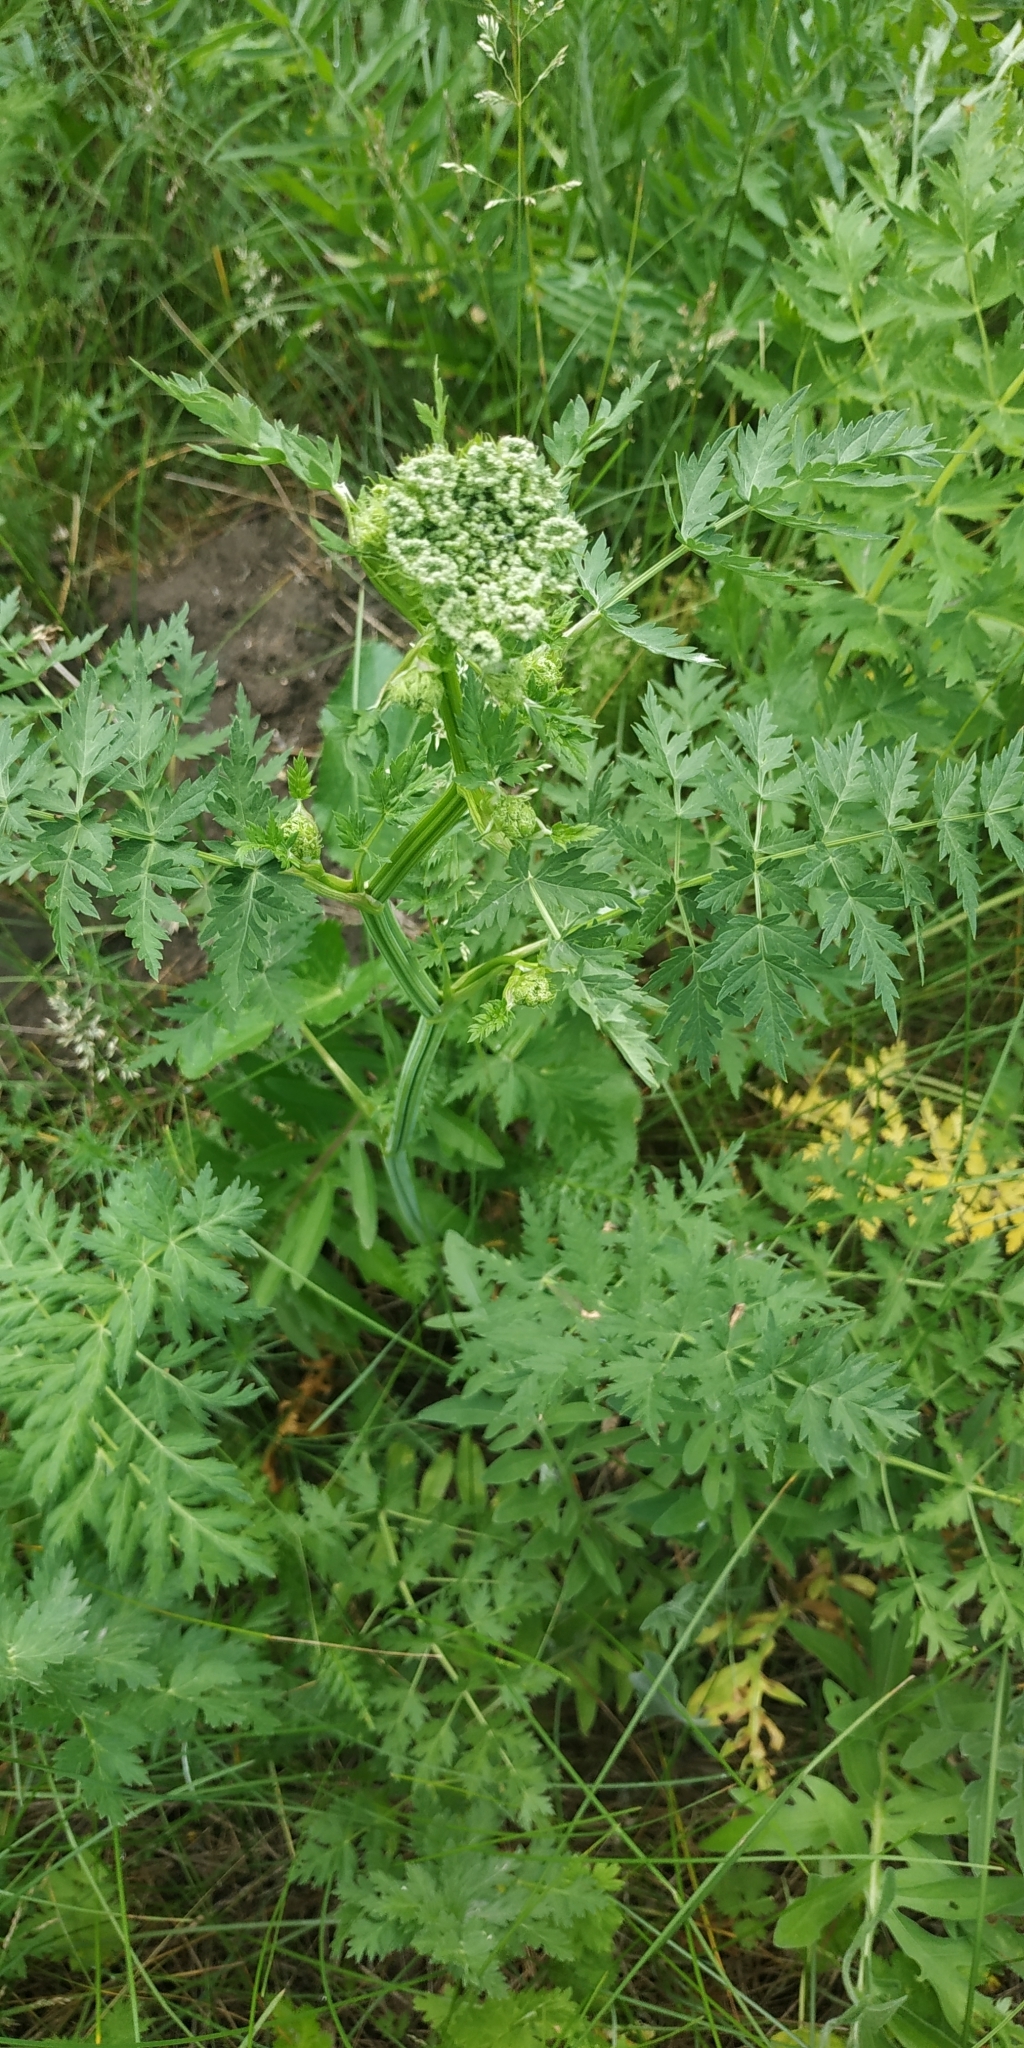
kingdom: Plantae
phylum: Tracheophyta
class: Magnoliopsida
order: Apiales
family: Apiaceae
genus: Seseli
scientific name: Seseli libanotis
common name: Mooncarrot
